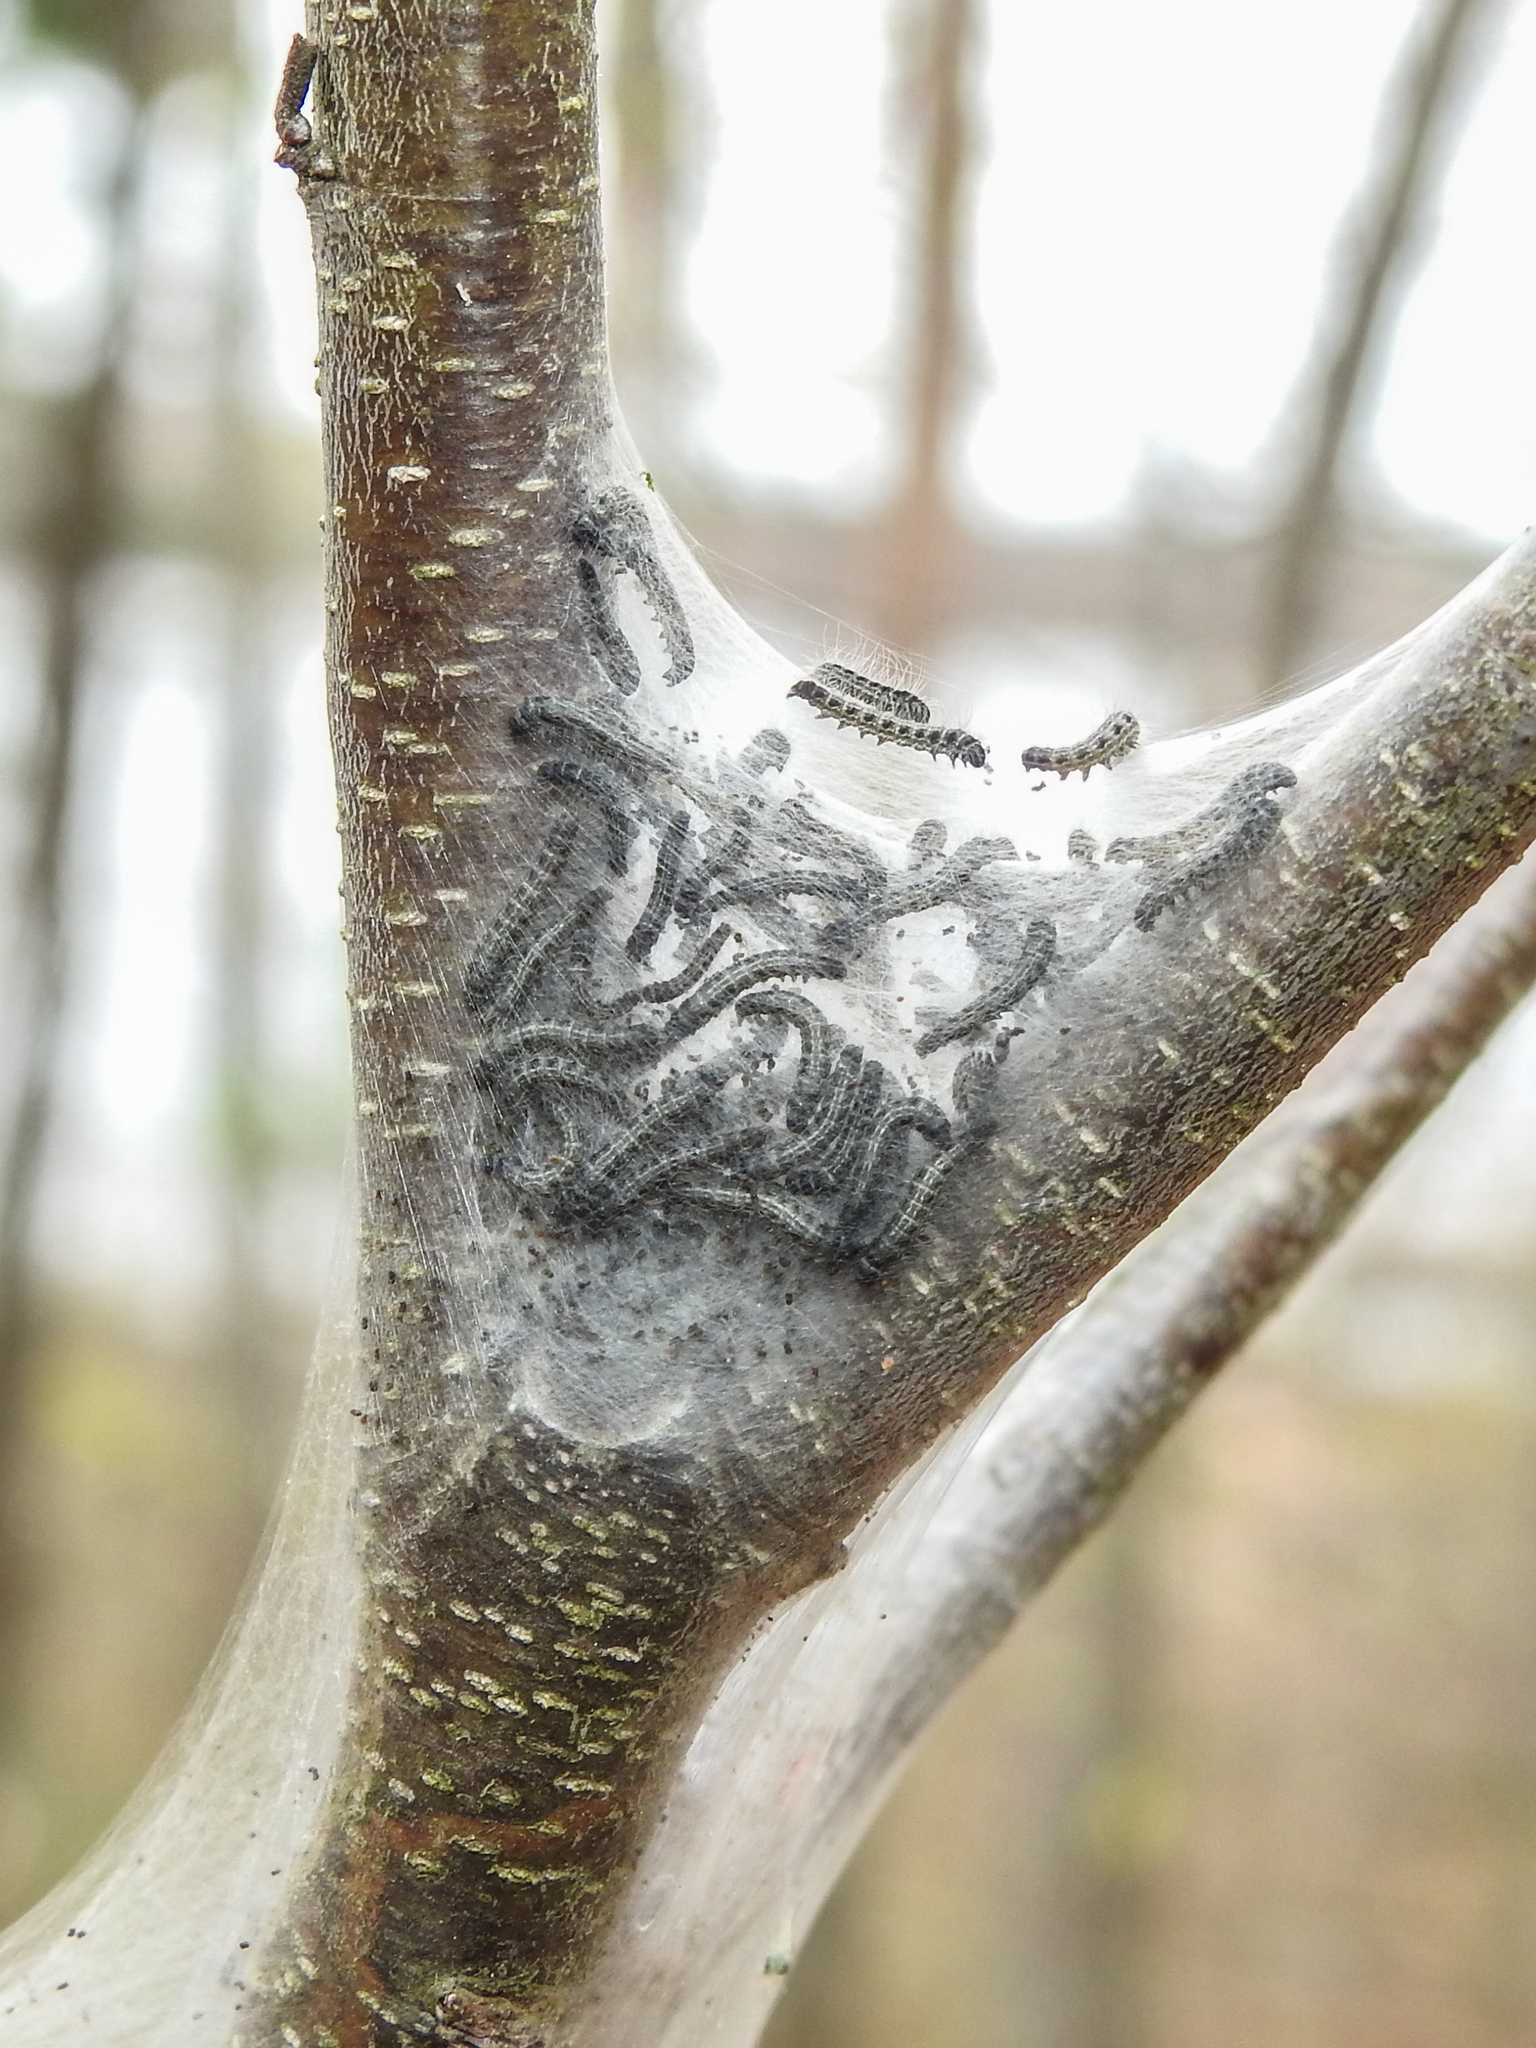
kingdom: Animalia
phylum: Arthropoda
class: Insecta
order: Lepidoptera
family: Lasiocampidae
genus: Malacosoma
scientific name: Malacosoma americana
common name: Eastern tent caterpillar moth
